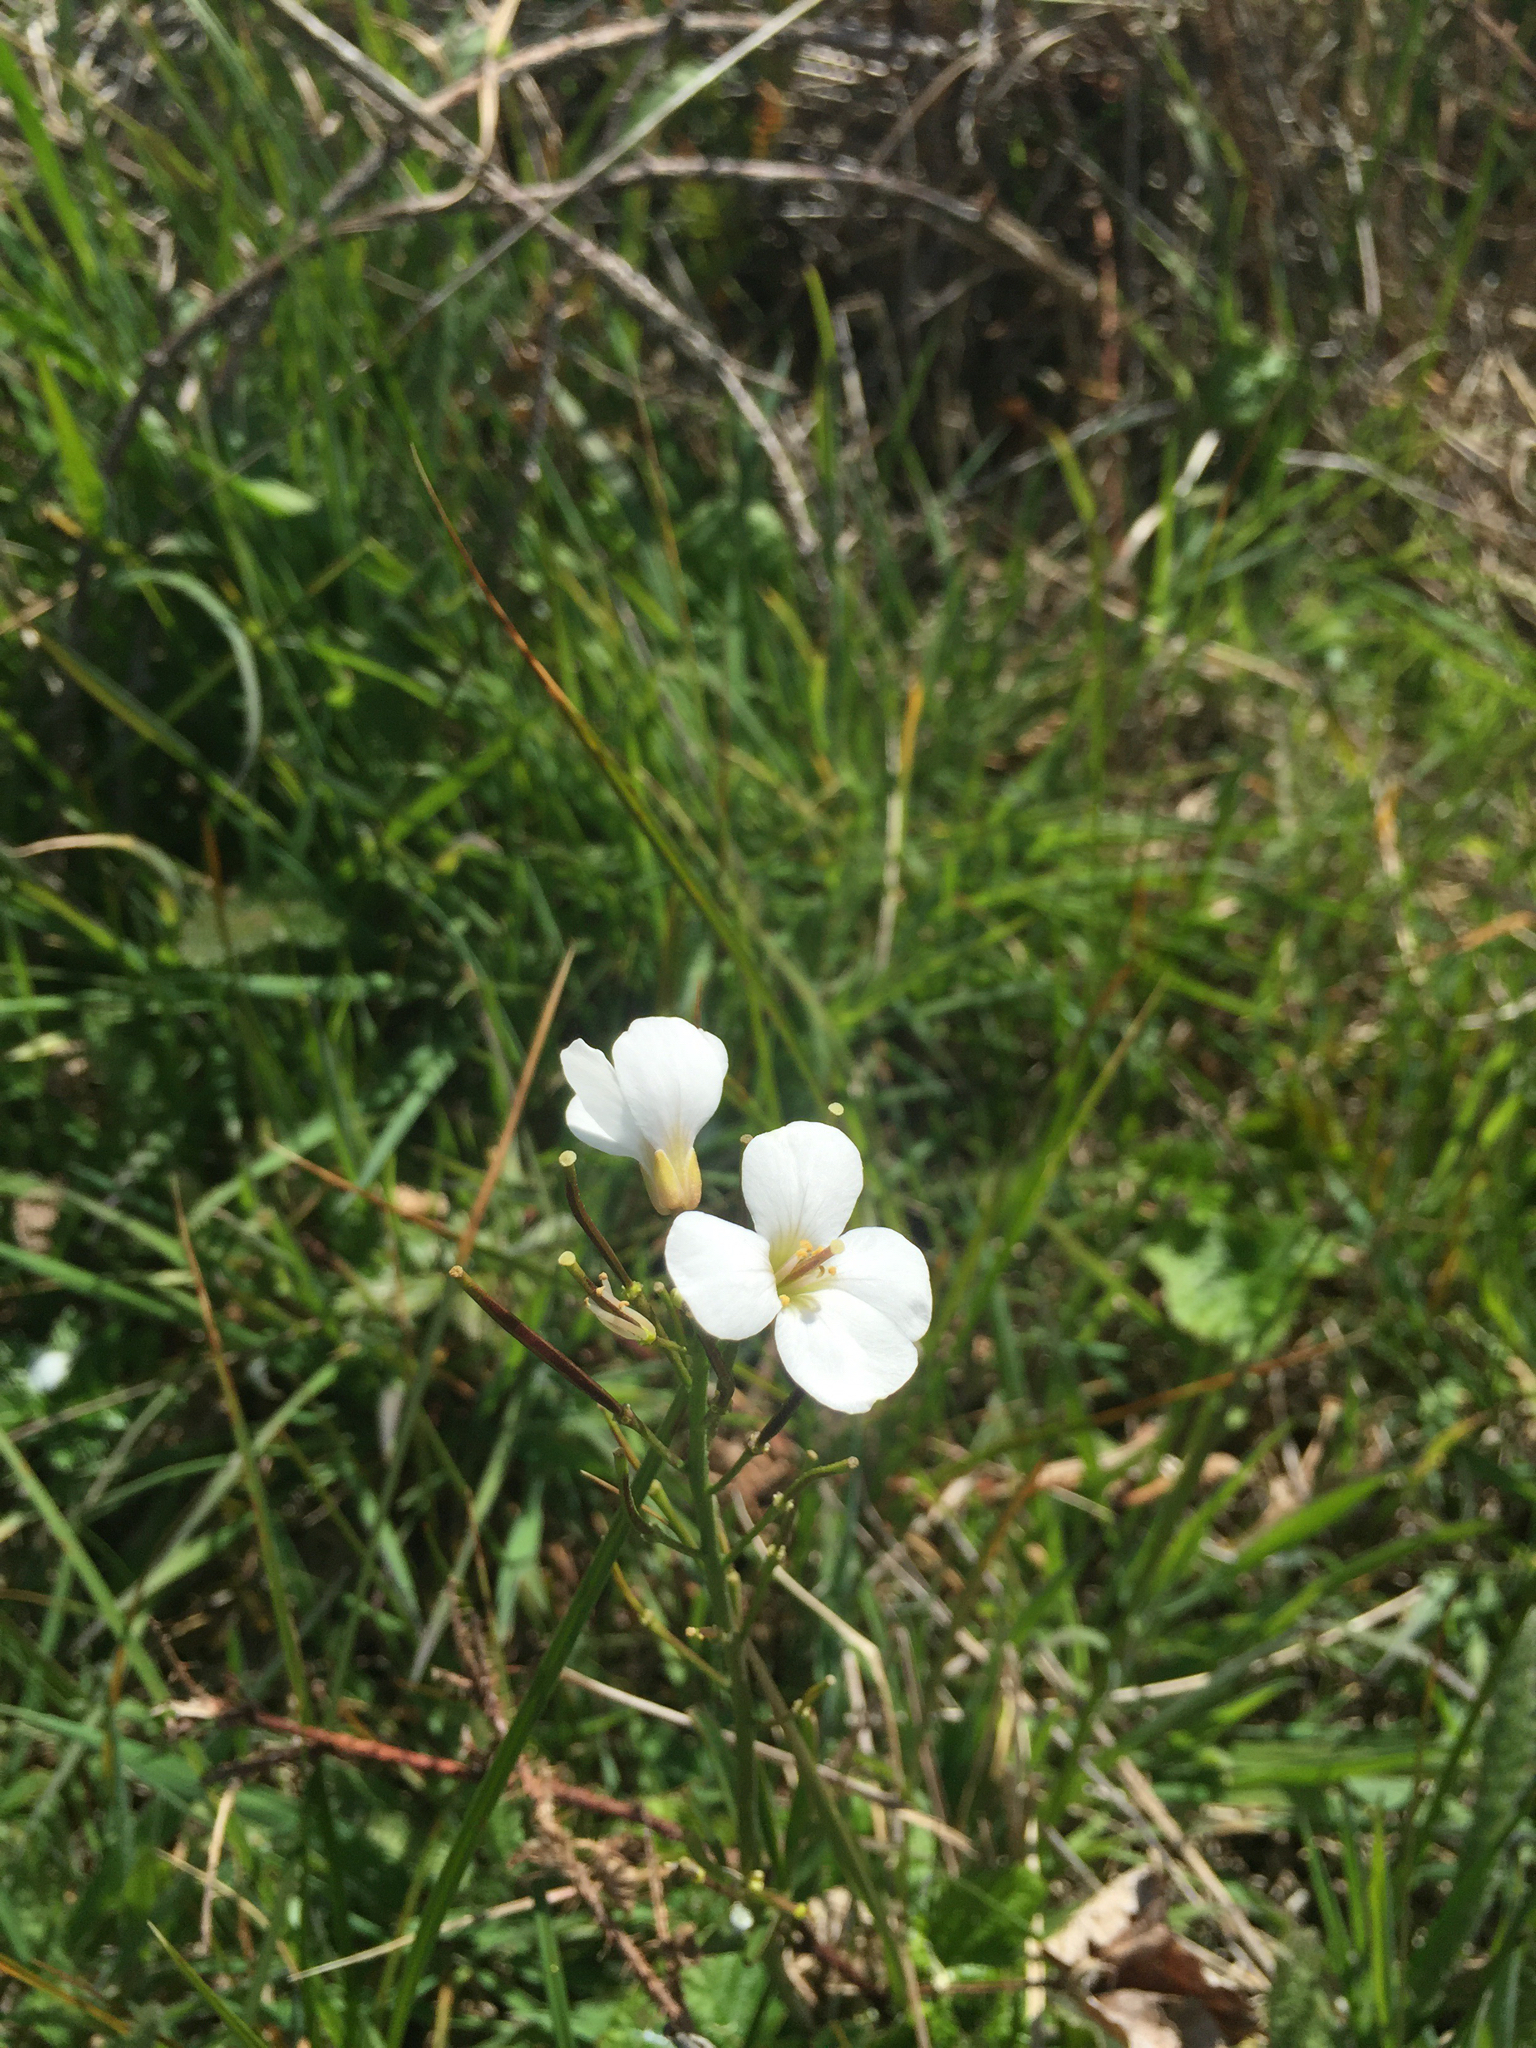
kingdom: Plantae
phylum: Tracheophyta
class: Magnoliopsida
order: Brassicales
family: Brassicaceae
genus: Cardamine
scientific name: Cardamine californica
